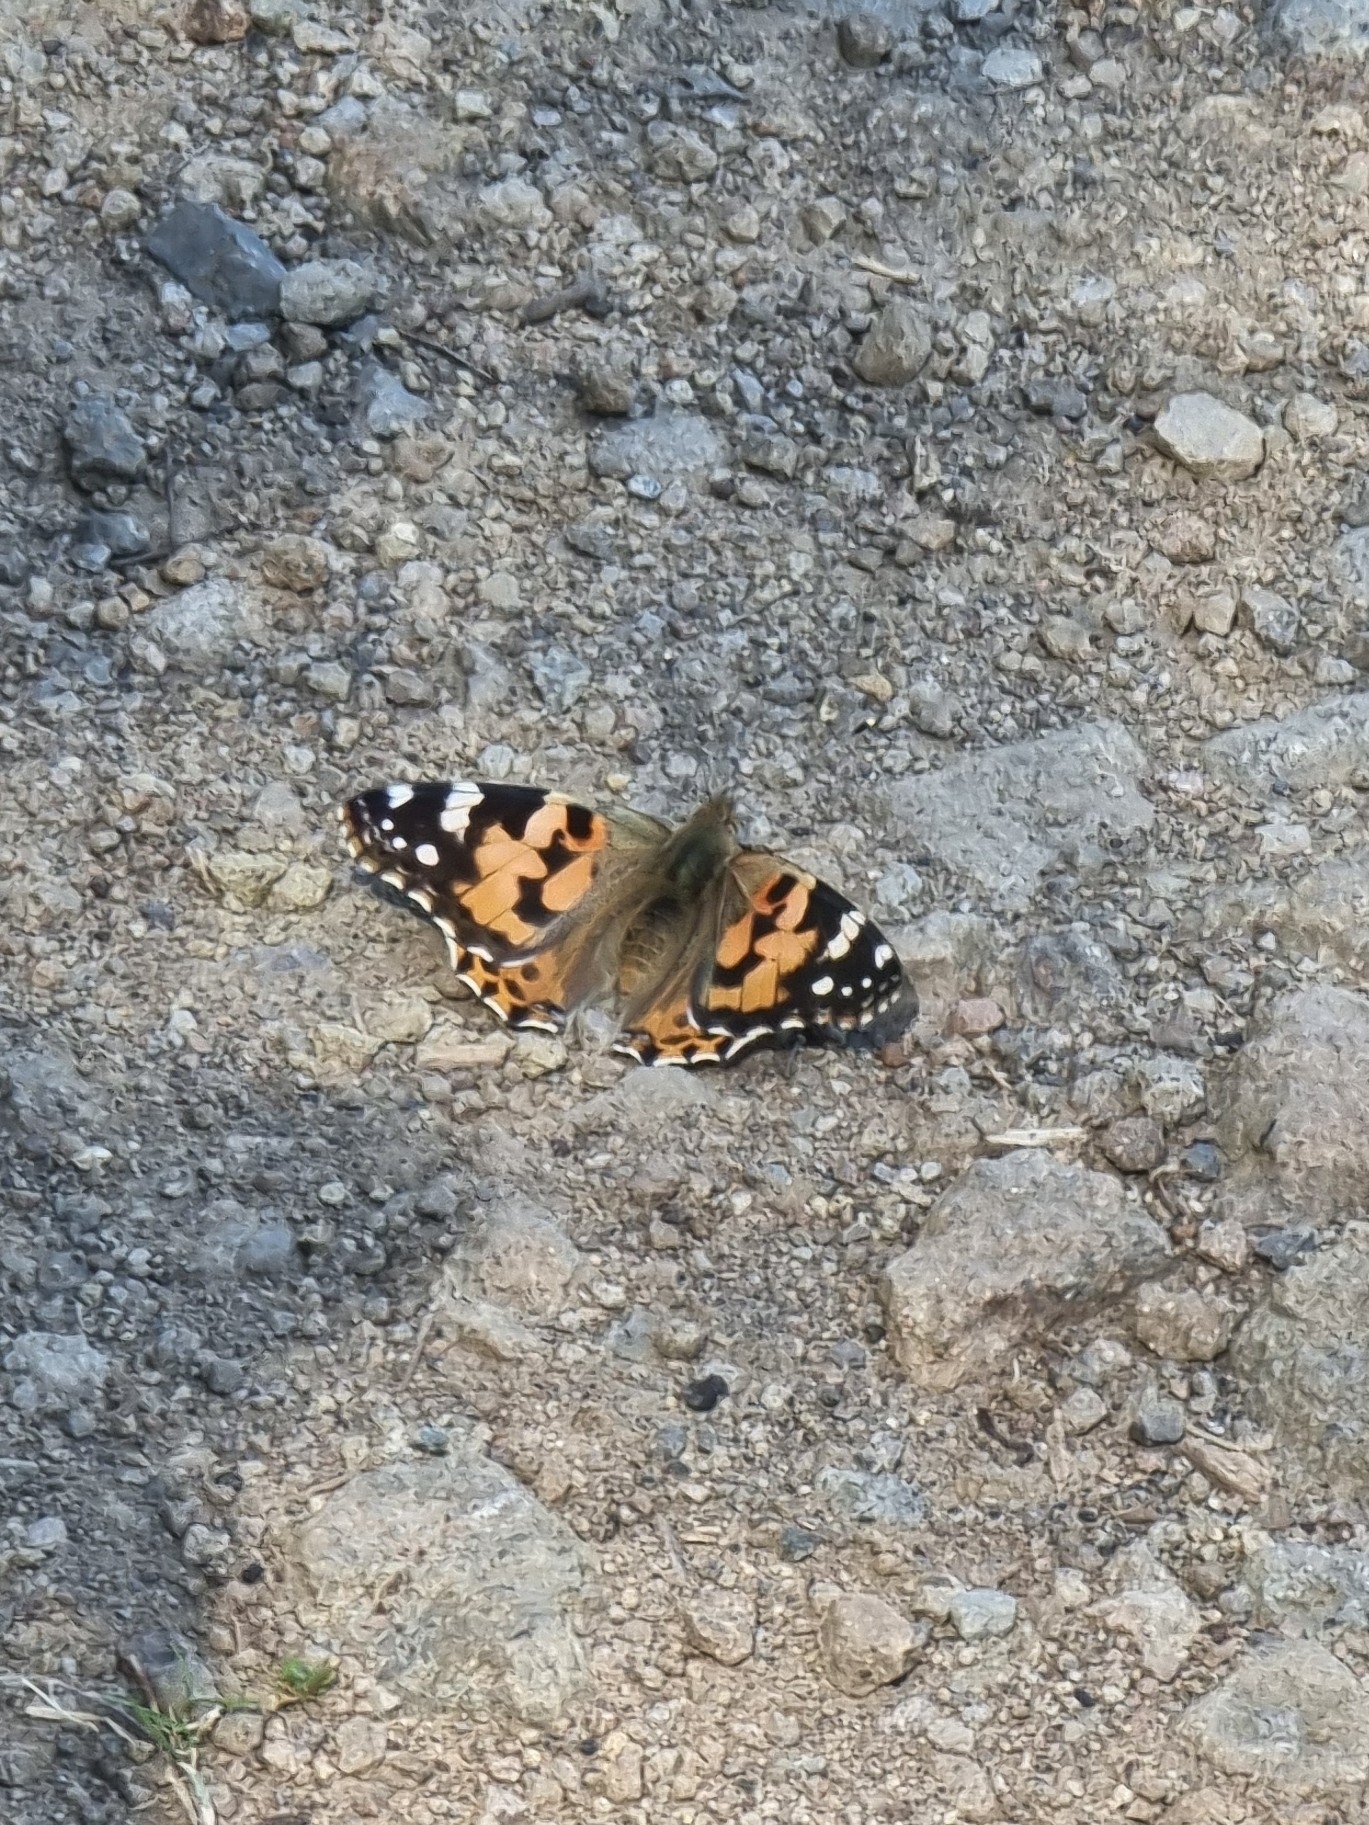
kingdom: Animalia
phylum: Arthropoda
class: Insecta
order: Lepidoptera
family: Nymphalidae
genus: Vanessa
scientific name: Vanessa cardui
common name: Painted lady
